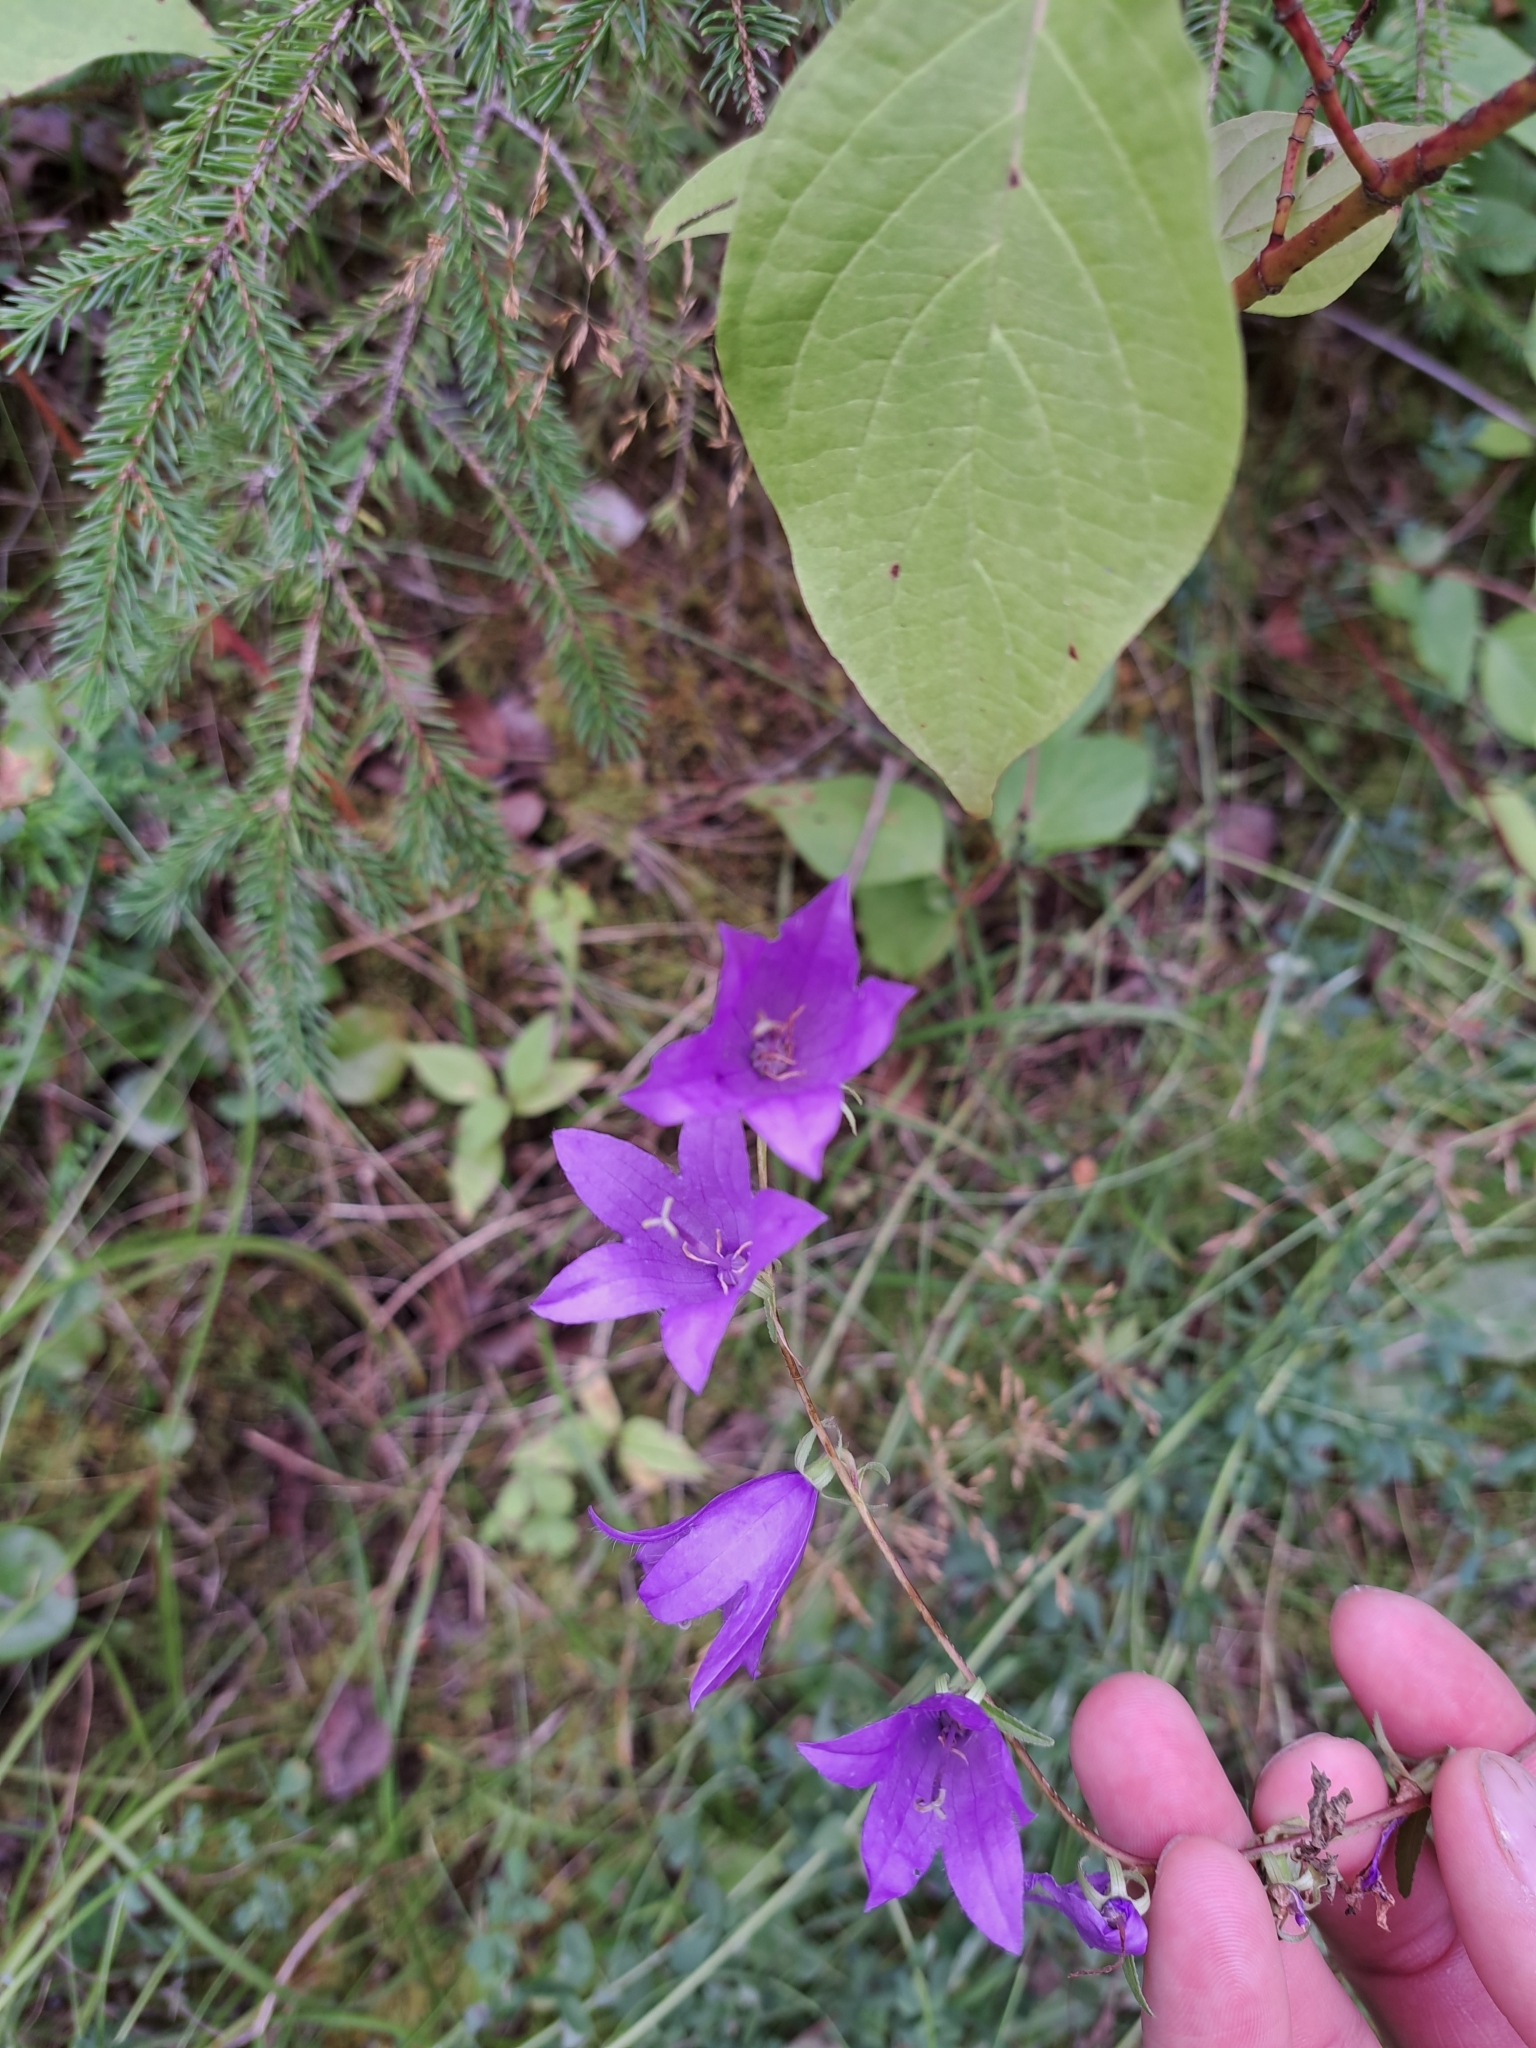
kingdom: Plantae
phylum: Tracheophyta
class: Magnoliopsida
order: Asterales
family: Campanulaceae
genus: Campanula
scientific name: Campanula rapunculoides
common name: Creeping bellflower
